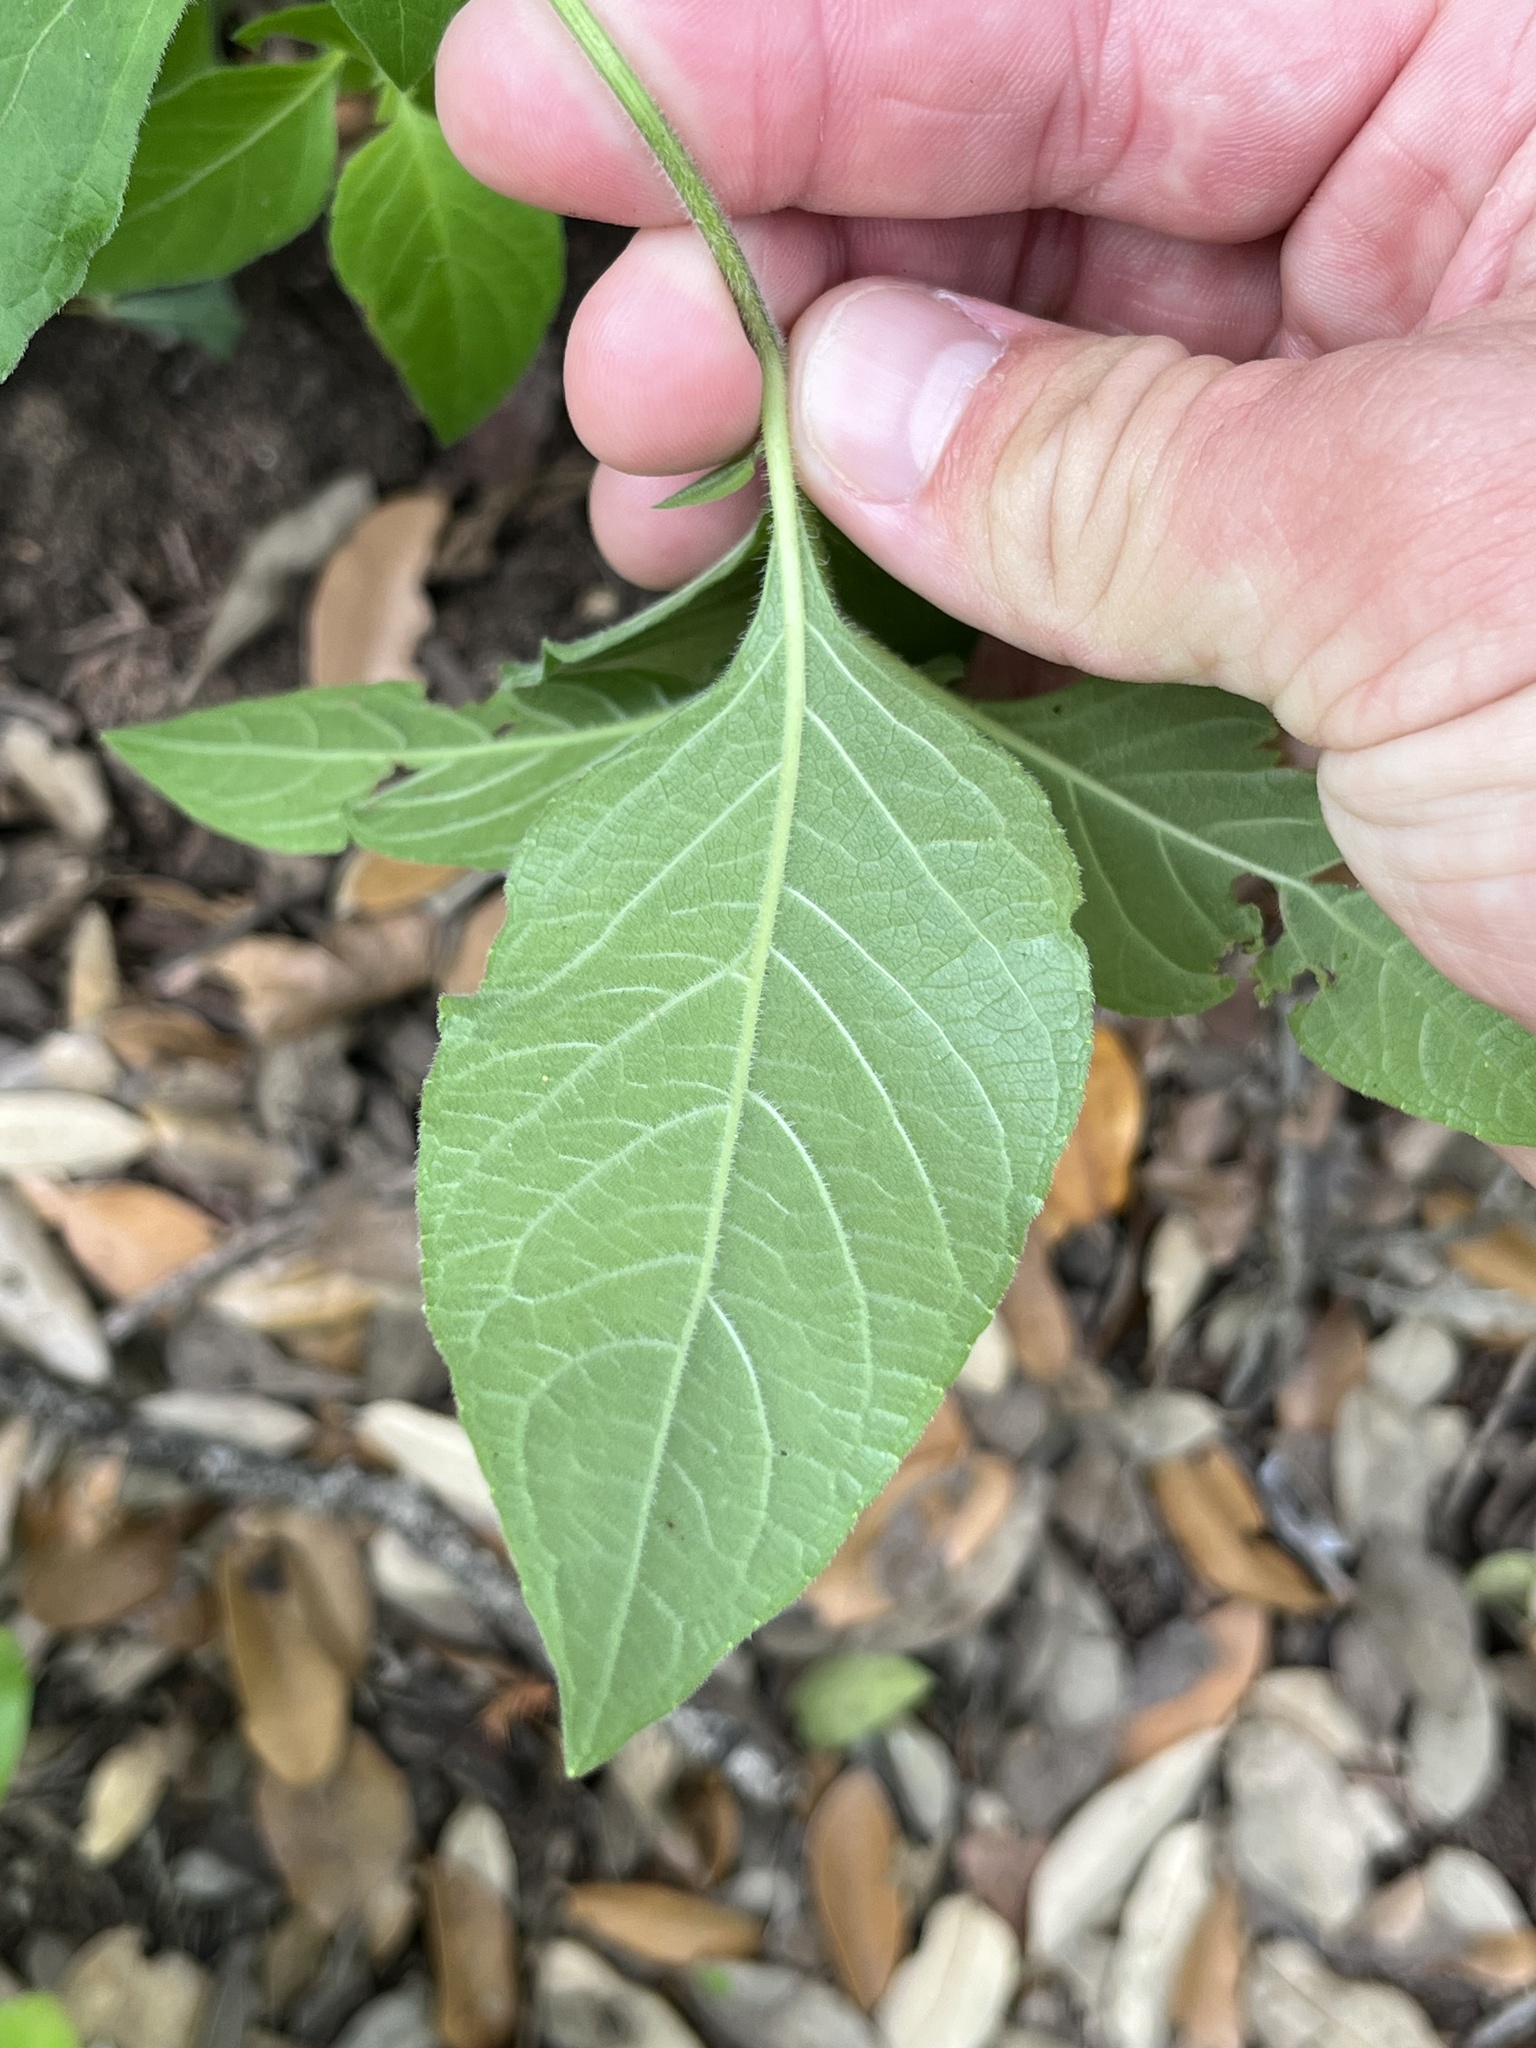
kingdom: Plantae
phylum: Tracheophyta
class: Magnoliopsida
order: Lamiales
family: Acanthaceae
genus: Ruellia
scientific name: Ruellia drummondiana
